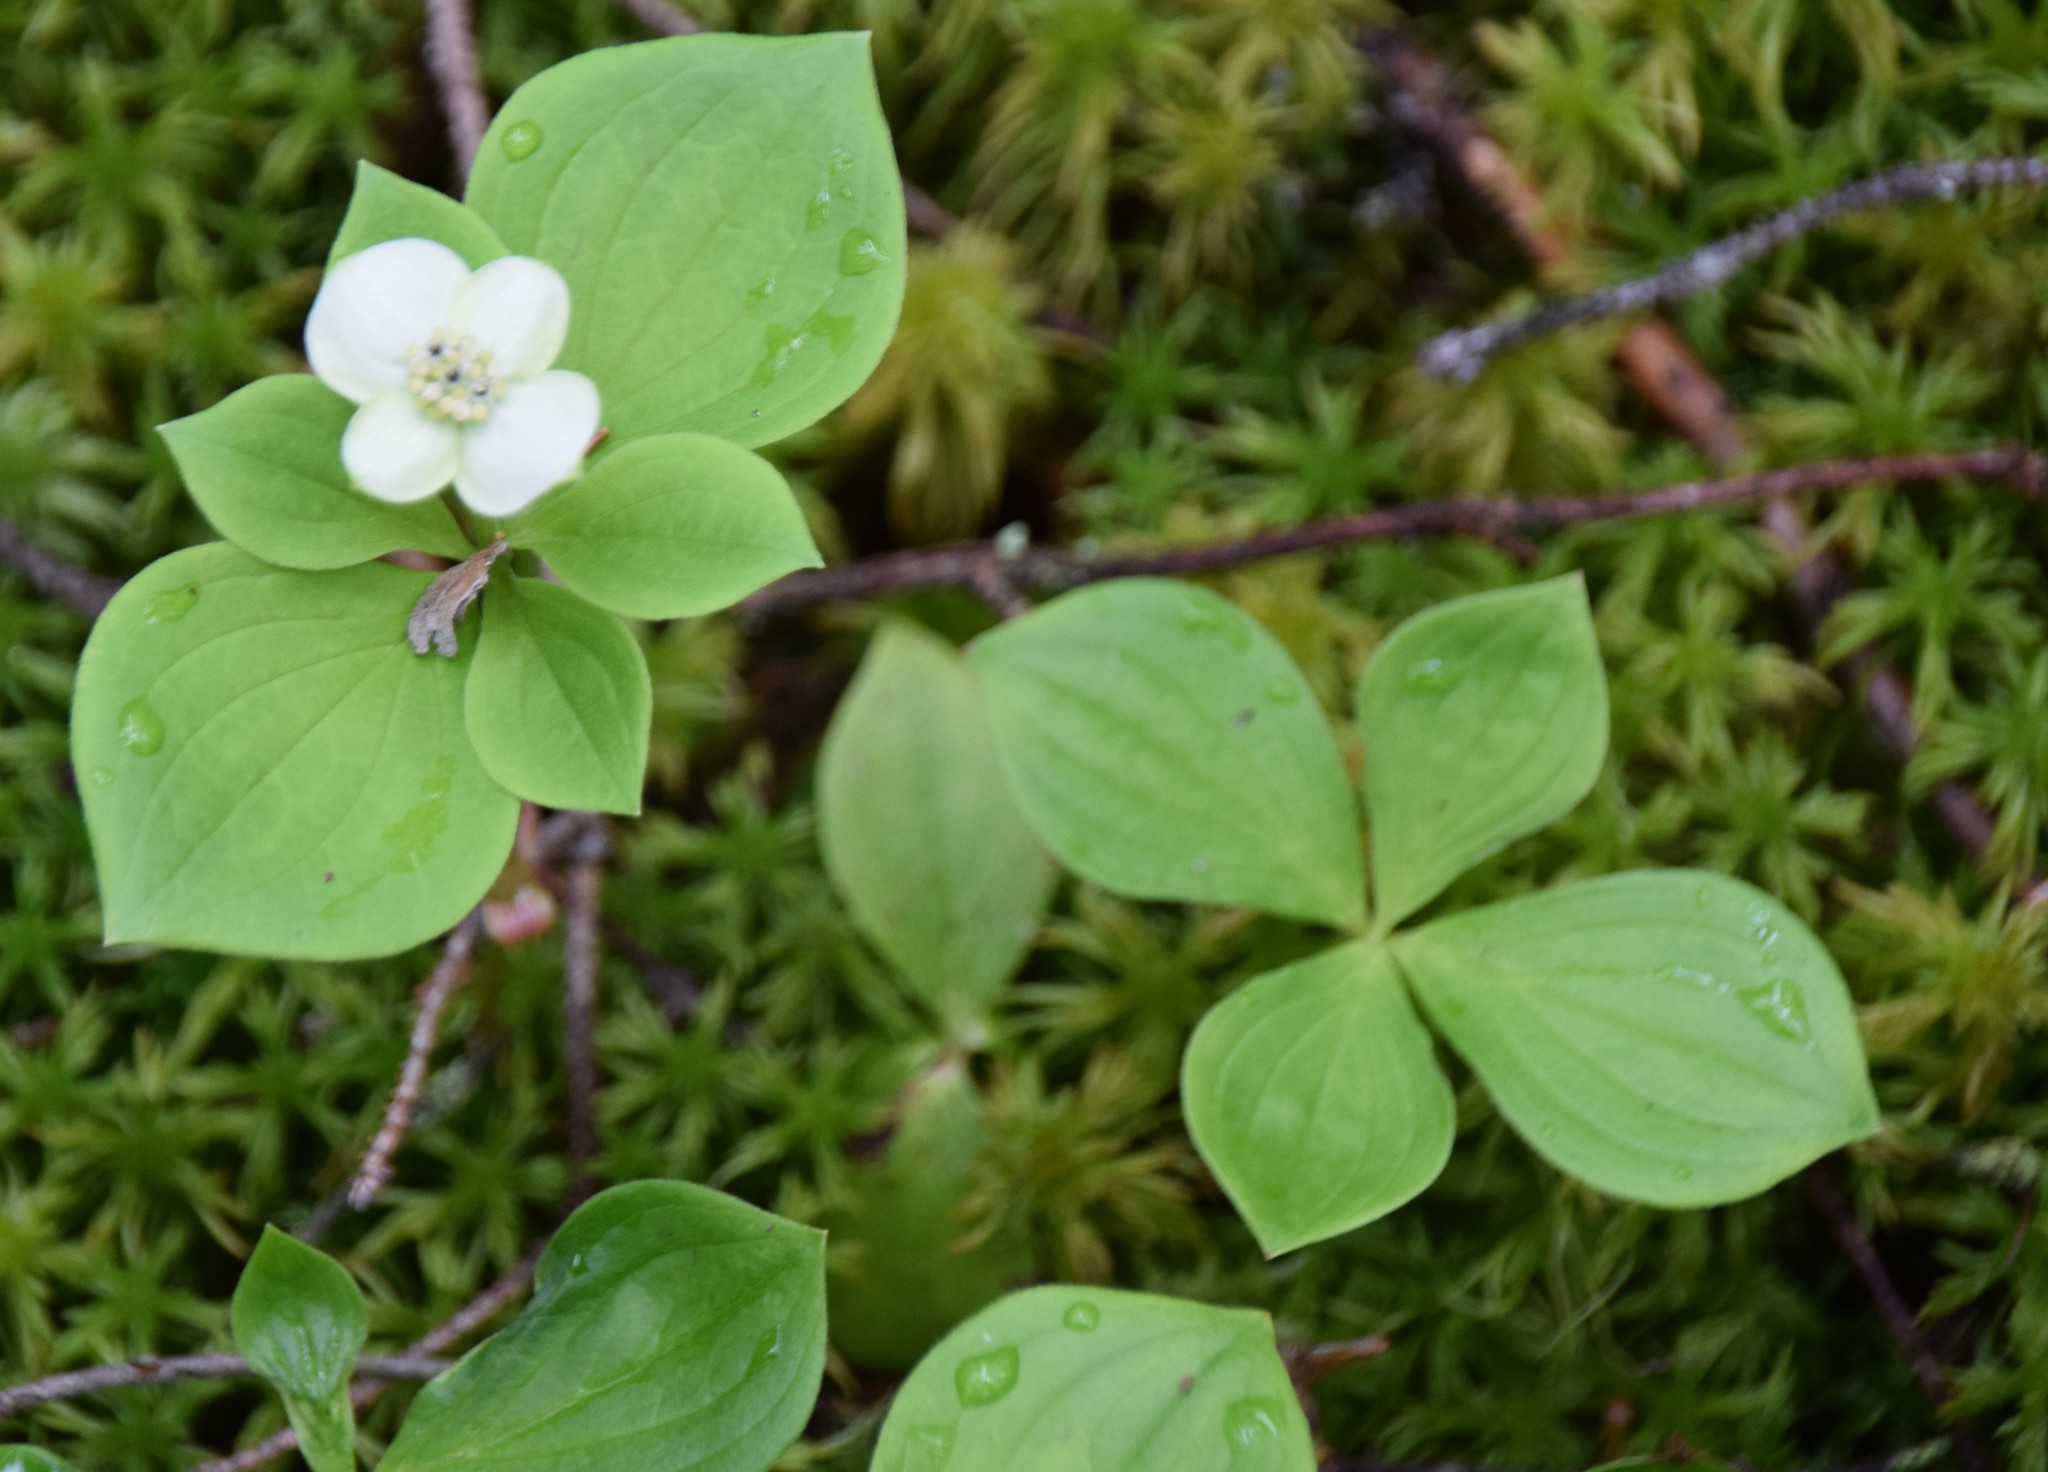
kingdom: Plantae
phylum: Tracheophyta
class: Magnoliopsida
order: Cornales
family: Cornaceae
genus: Cornus
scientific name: Cornus canadensis
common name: Creeping dogwood
